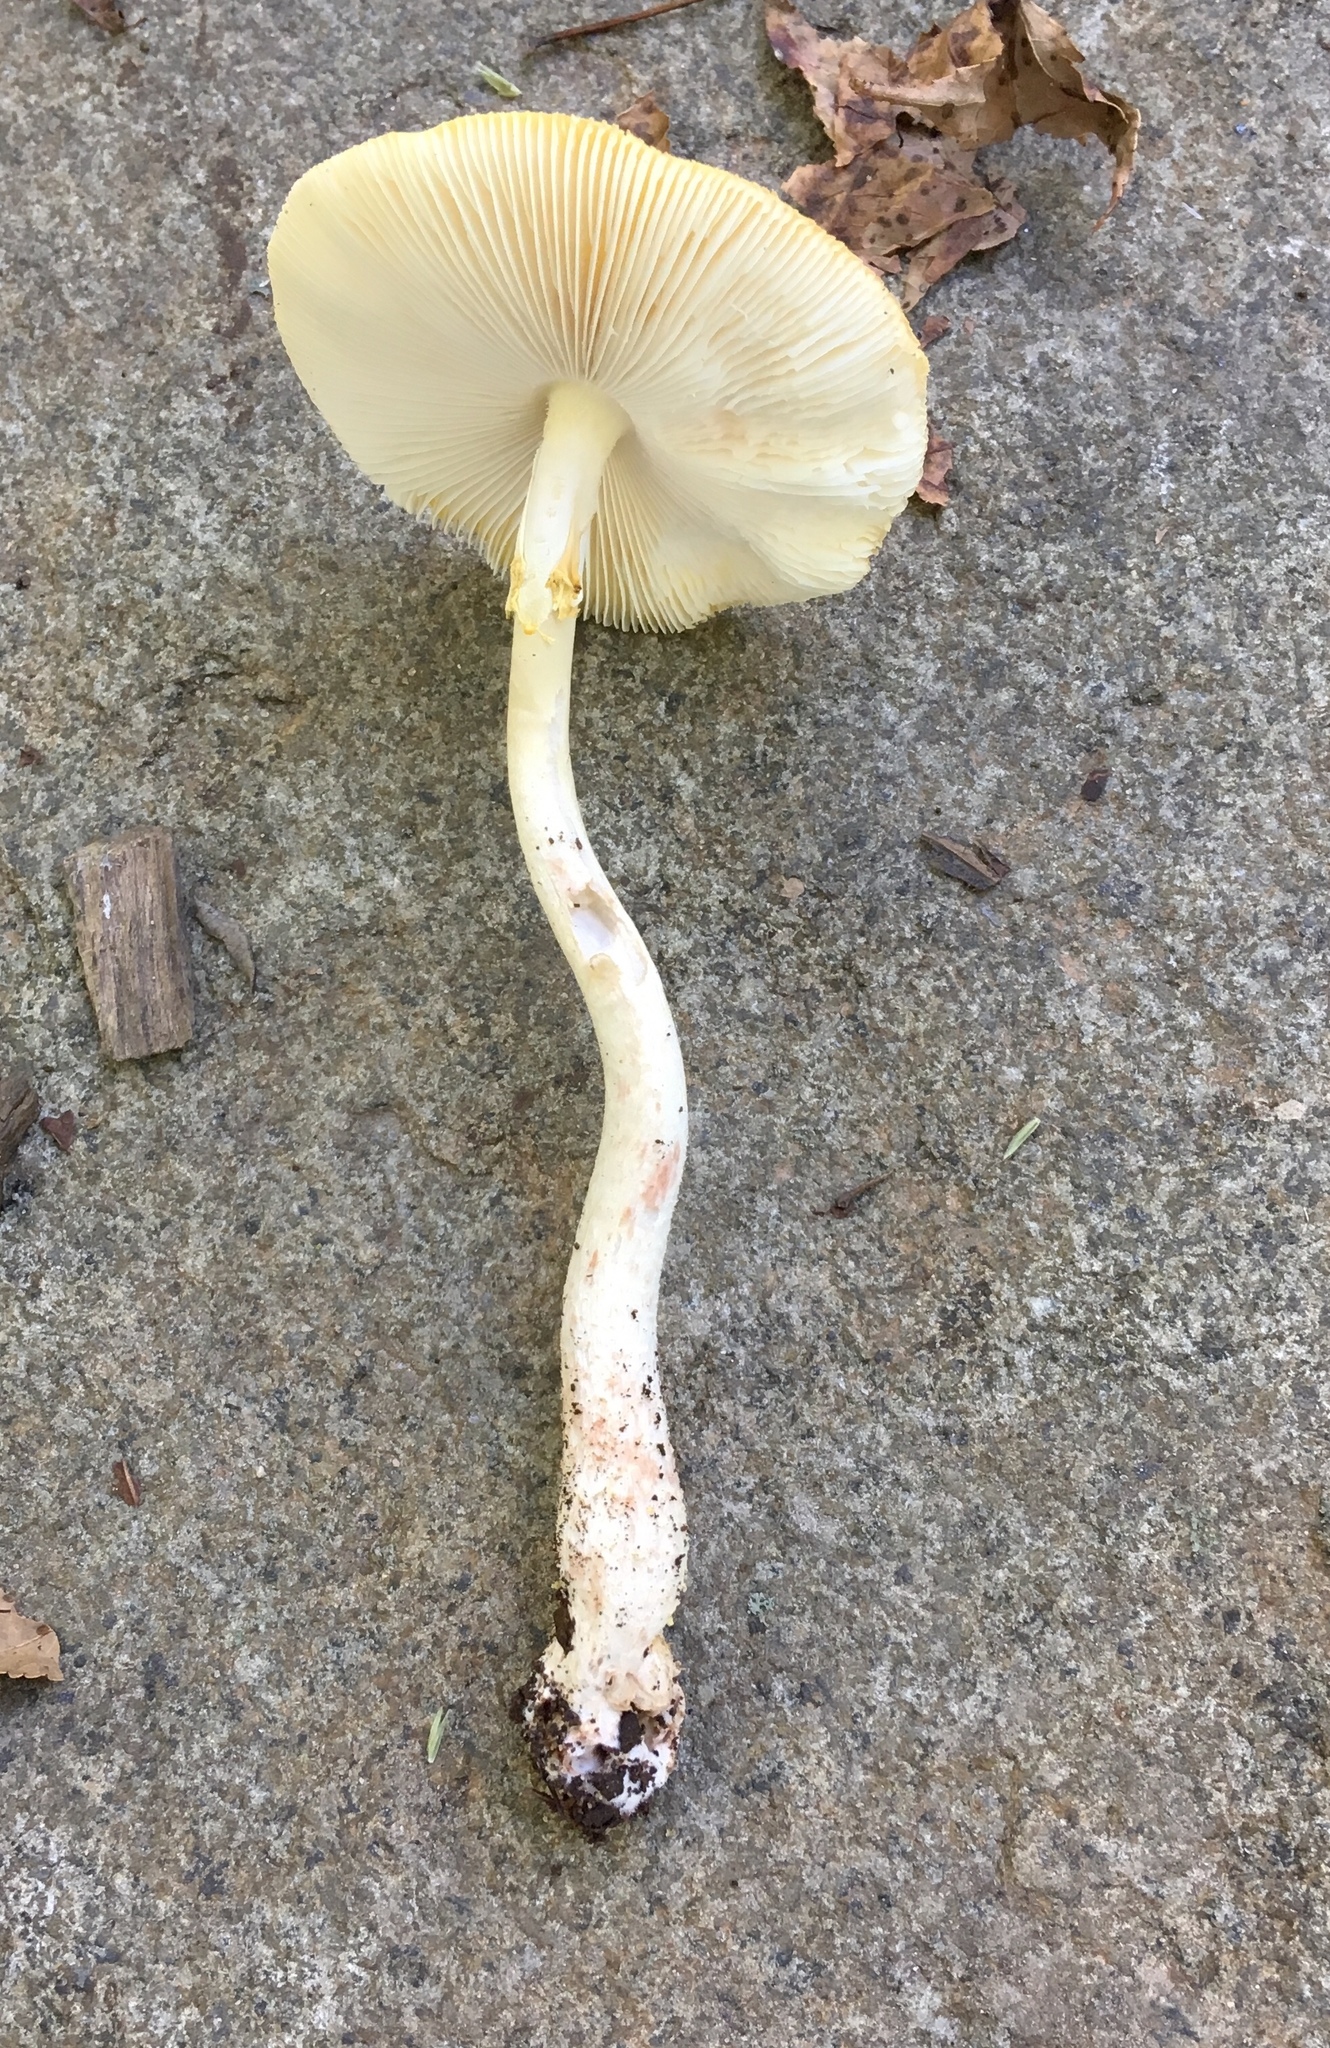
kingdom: Fungi
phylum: Basidiomycota
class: Agaricomycetes
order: Agaricales
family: Amanitaceae
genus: Amanita
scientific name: Amanita flavorubens
